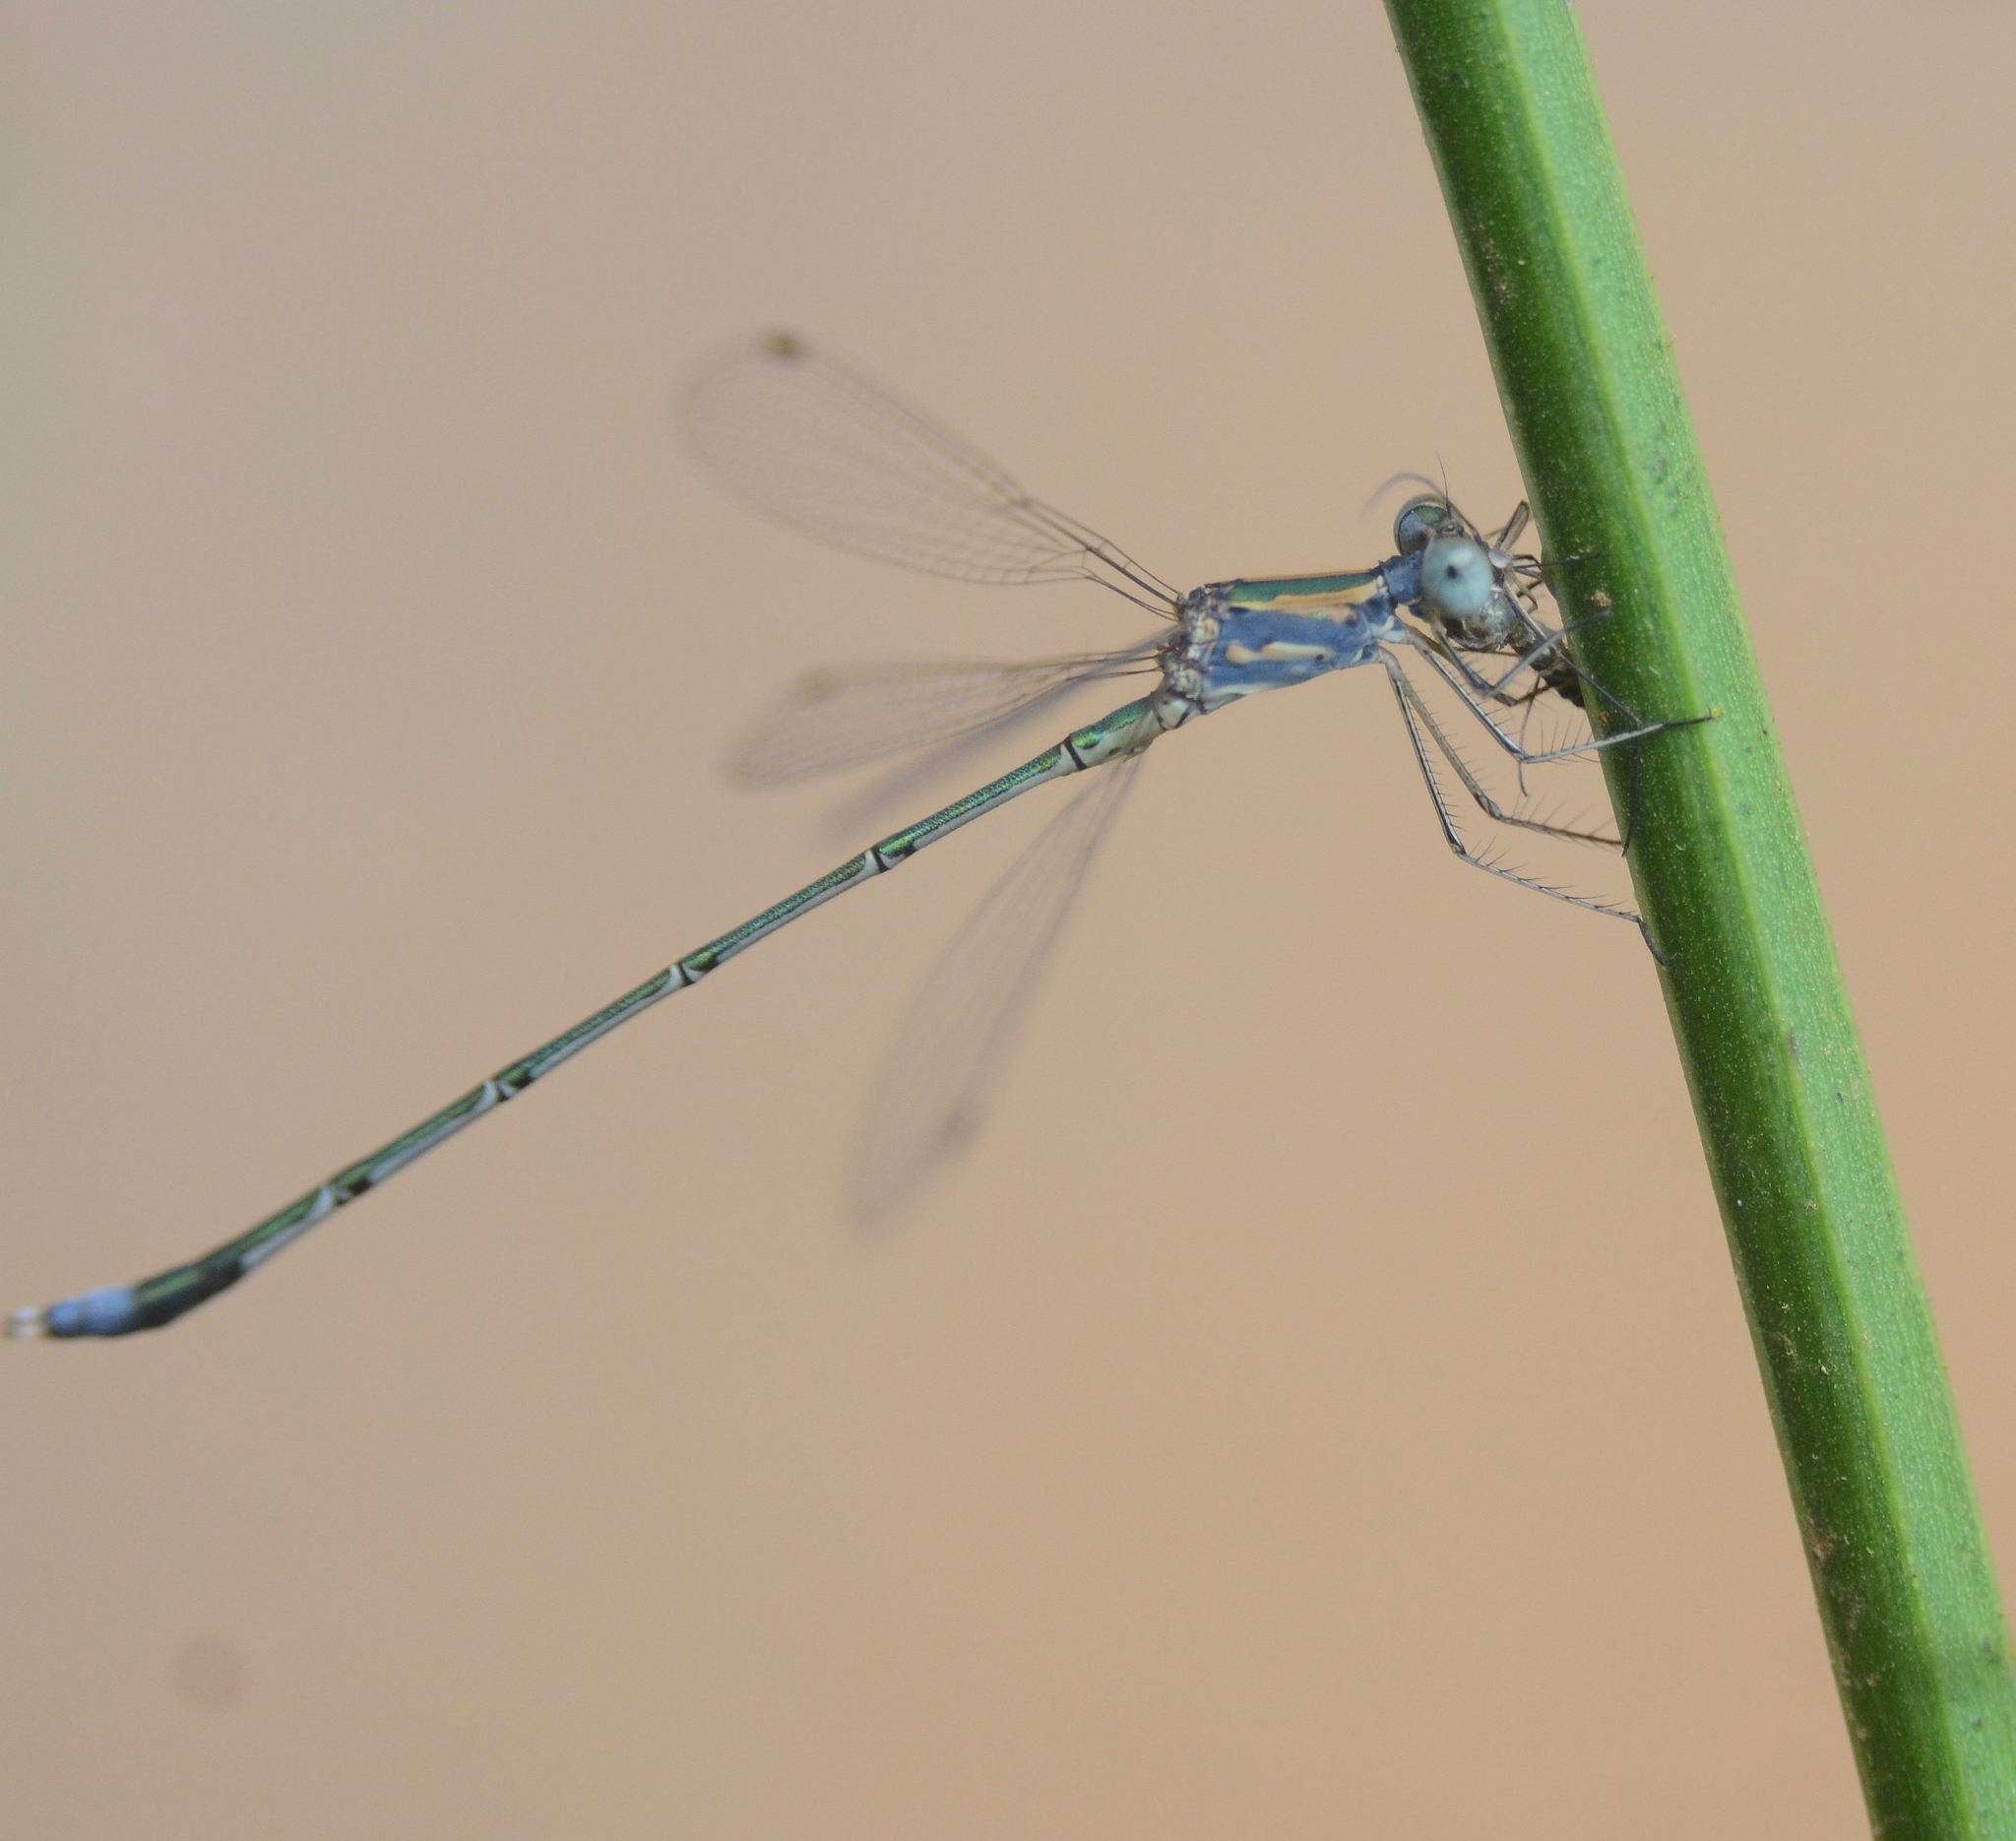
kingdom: Animalia
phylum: Arthropoda
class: Insecta
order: Odonata
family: Lestidae
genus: Lestes
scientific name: Lestes elatus
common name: Emerald spreadwing
